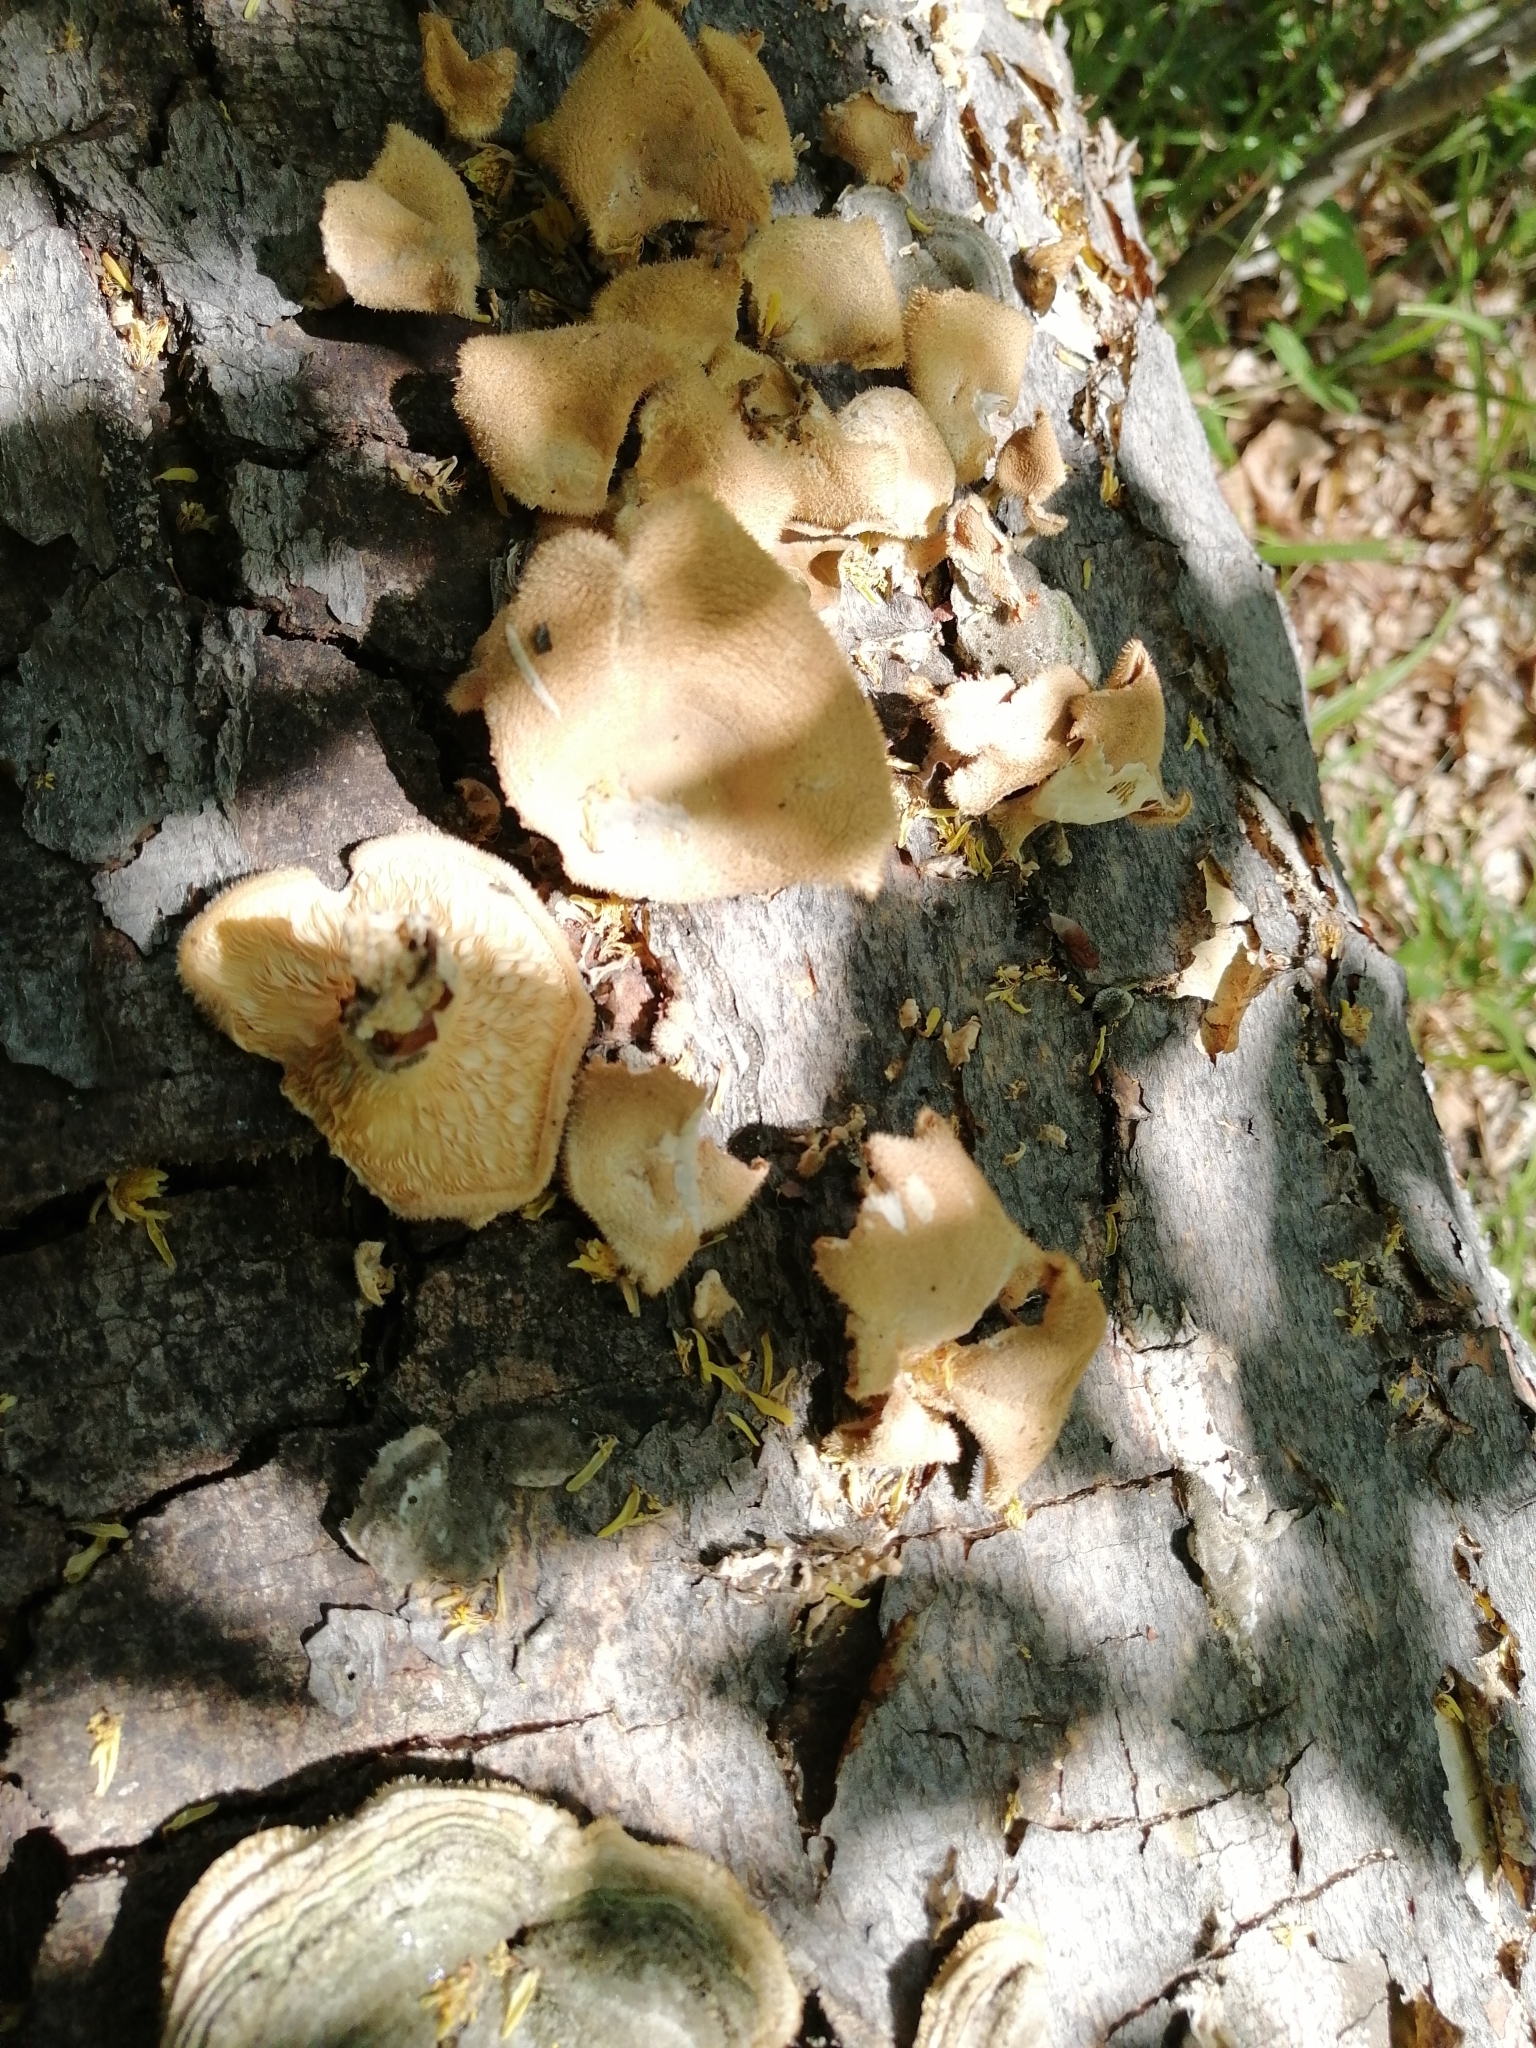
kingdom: Fungi
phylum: Basidiomycota
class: Agaricomycetes
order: Polyporales
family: Panaceae
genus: Panus
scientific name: Panus neostrigosus
